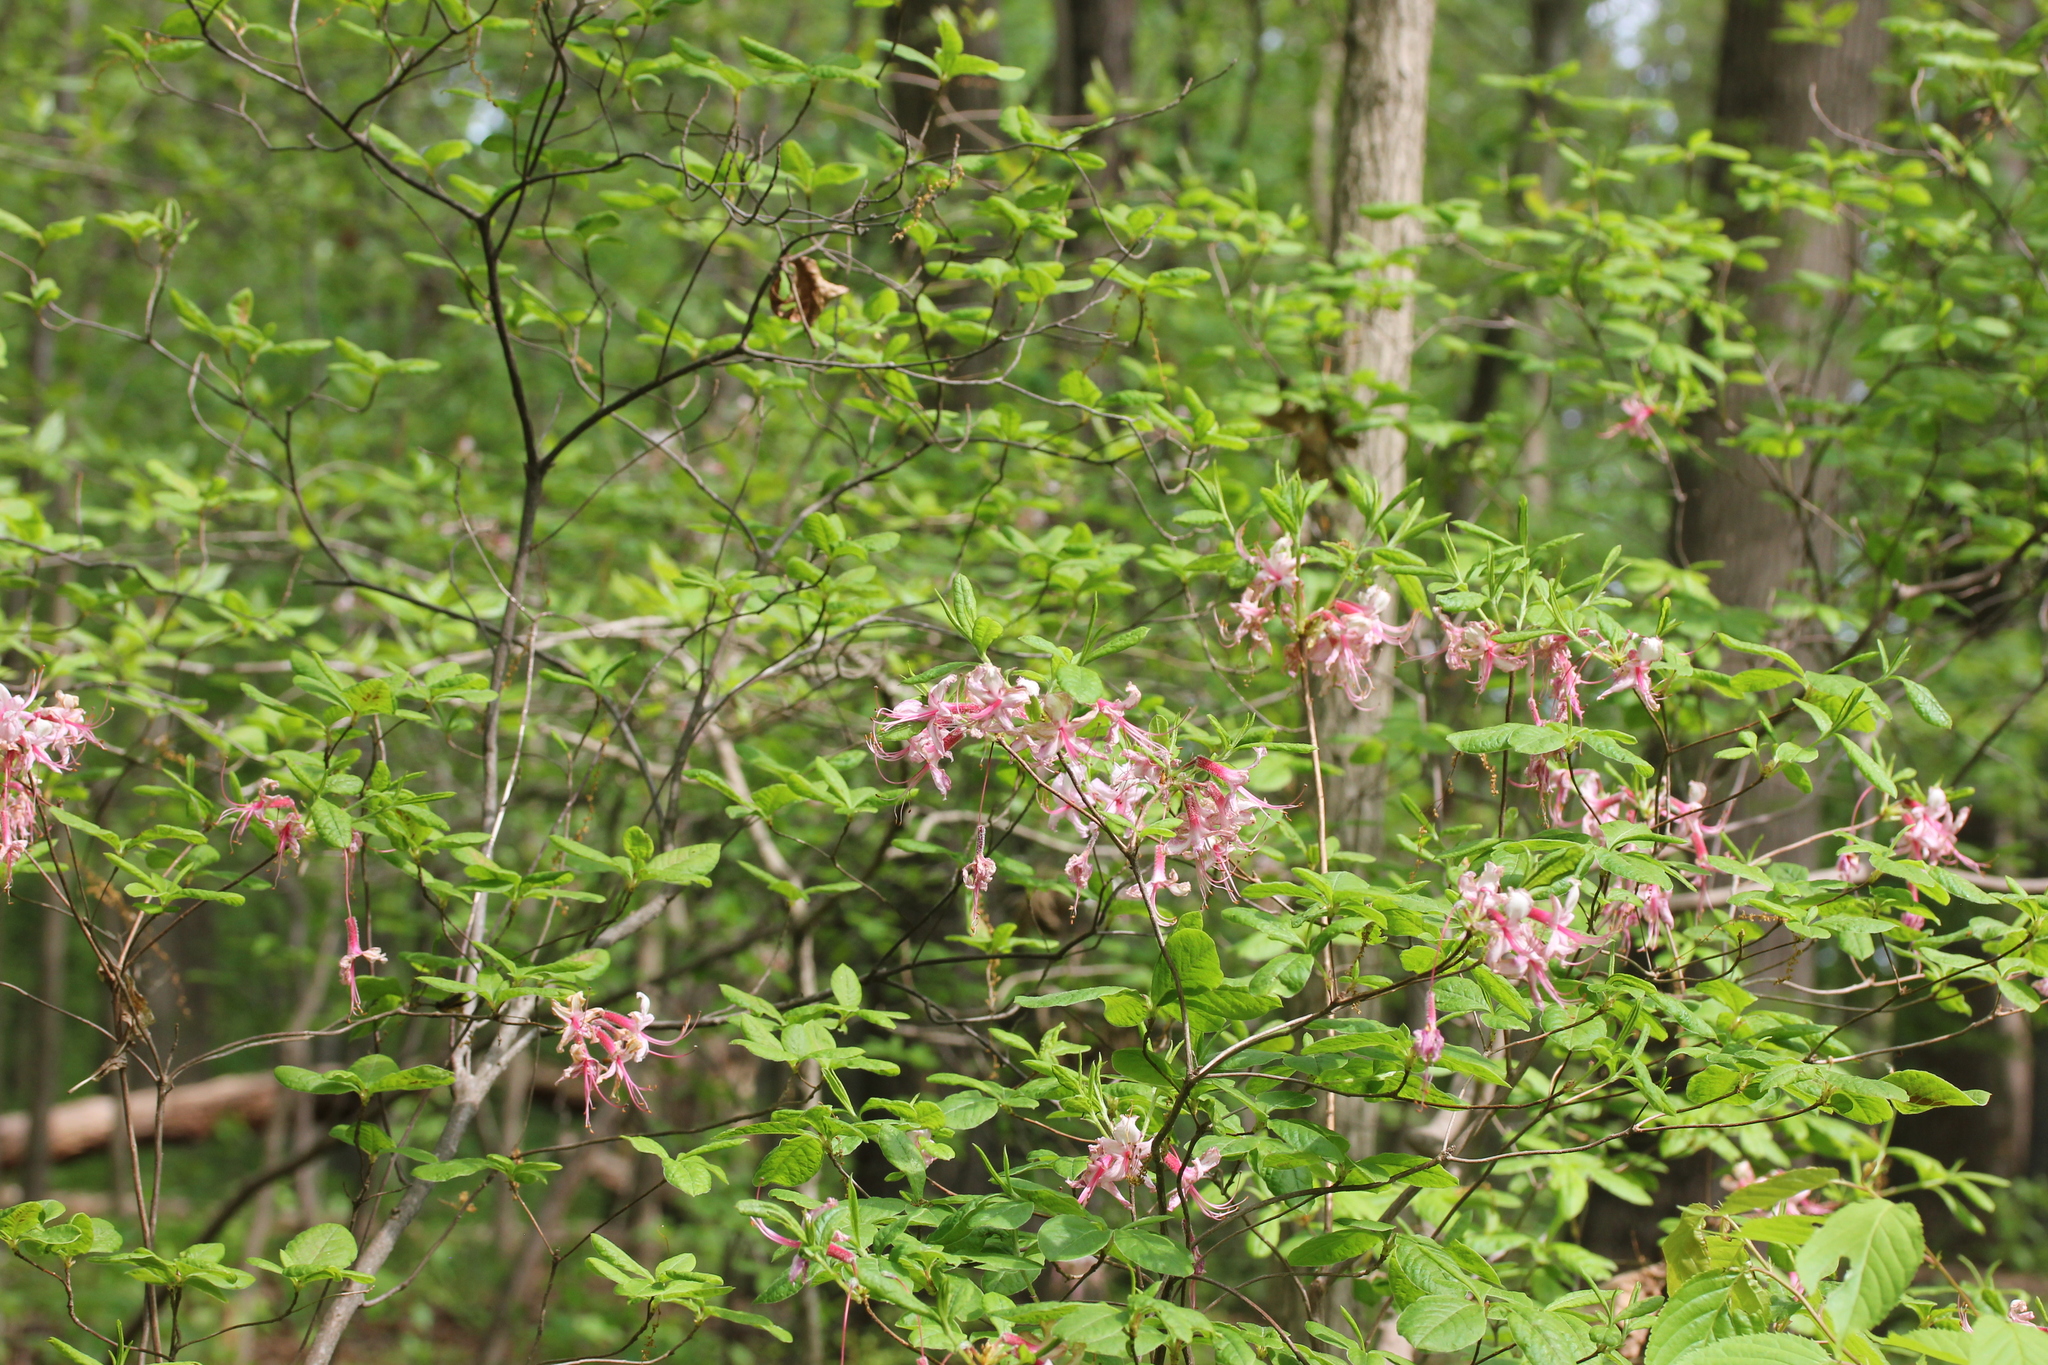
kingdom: Plantae
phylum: Tracheophyta
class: Magnoliopsida
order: Ericales
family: Ericaceae
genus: Rhododendron
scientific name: Rhododendron periclymenoides
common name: Election-pink
